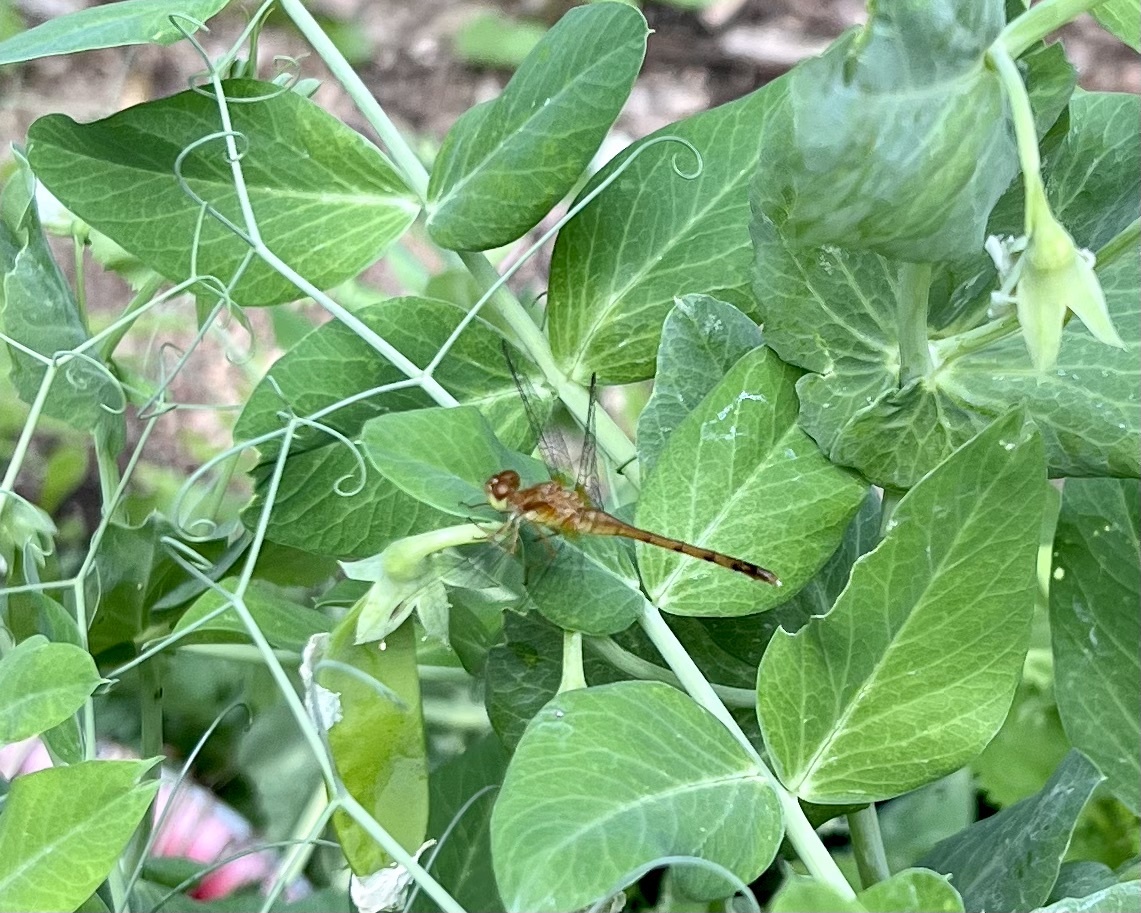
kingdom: Animalia
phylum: Arthropoda
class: Insecta
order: Odonata
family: Libellulidae
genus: Sympetrum
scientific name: Sympetrum vicinum
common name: Autumn meadowhawk
